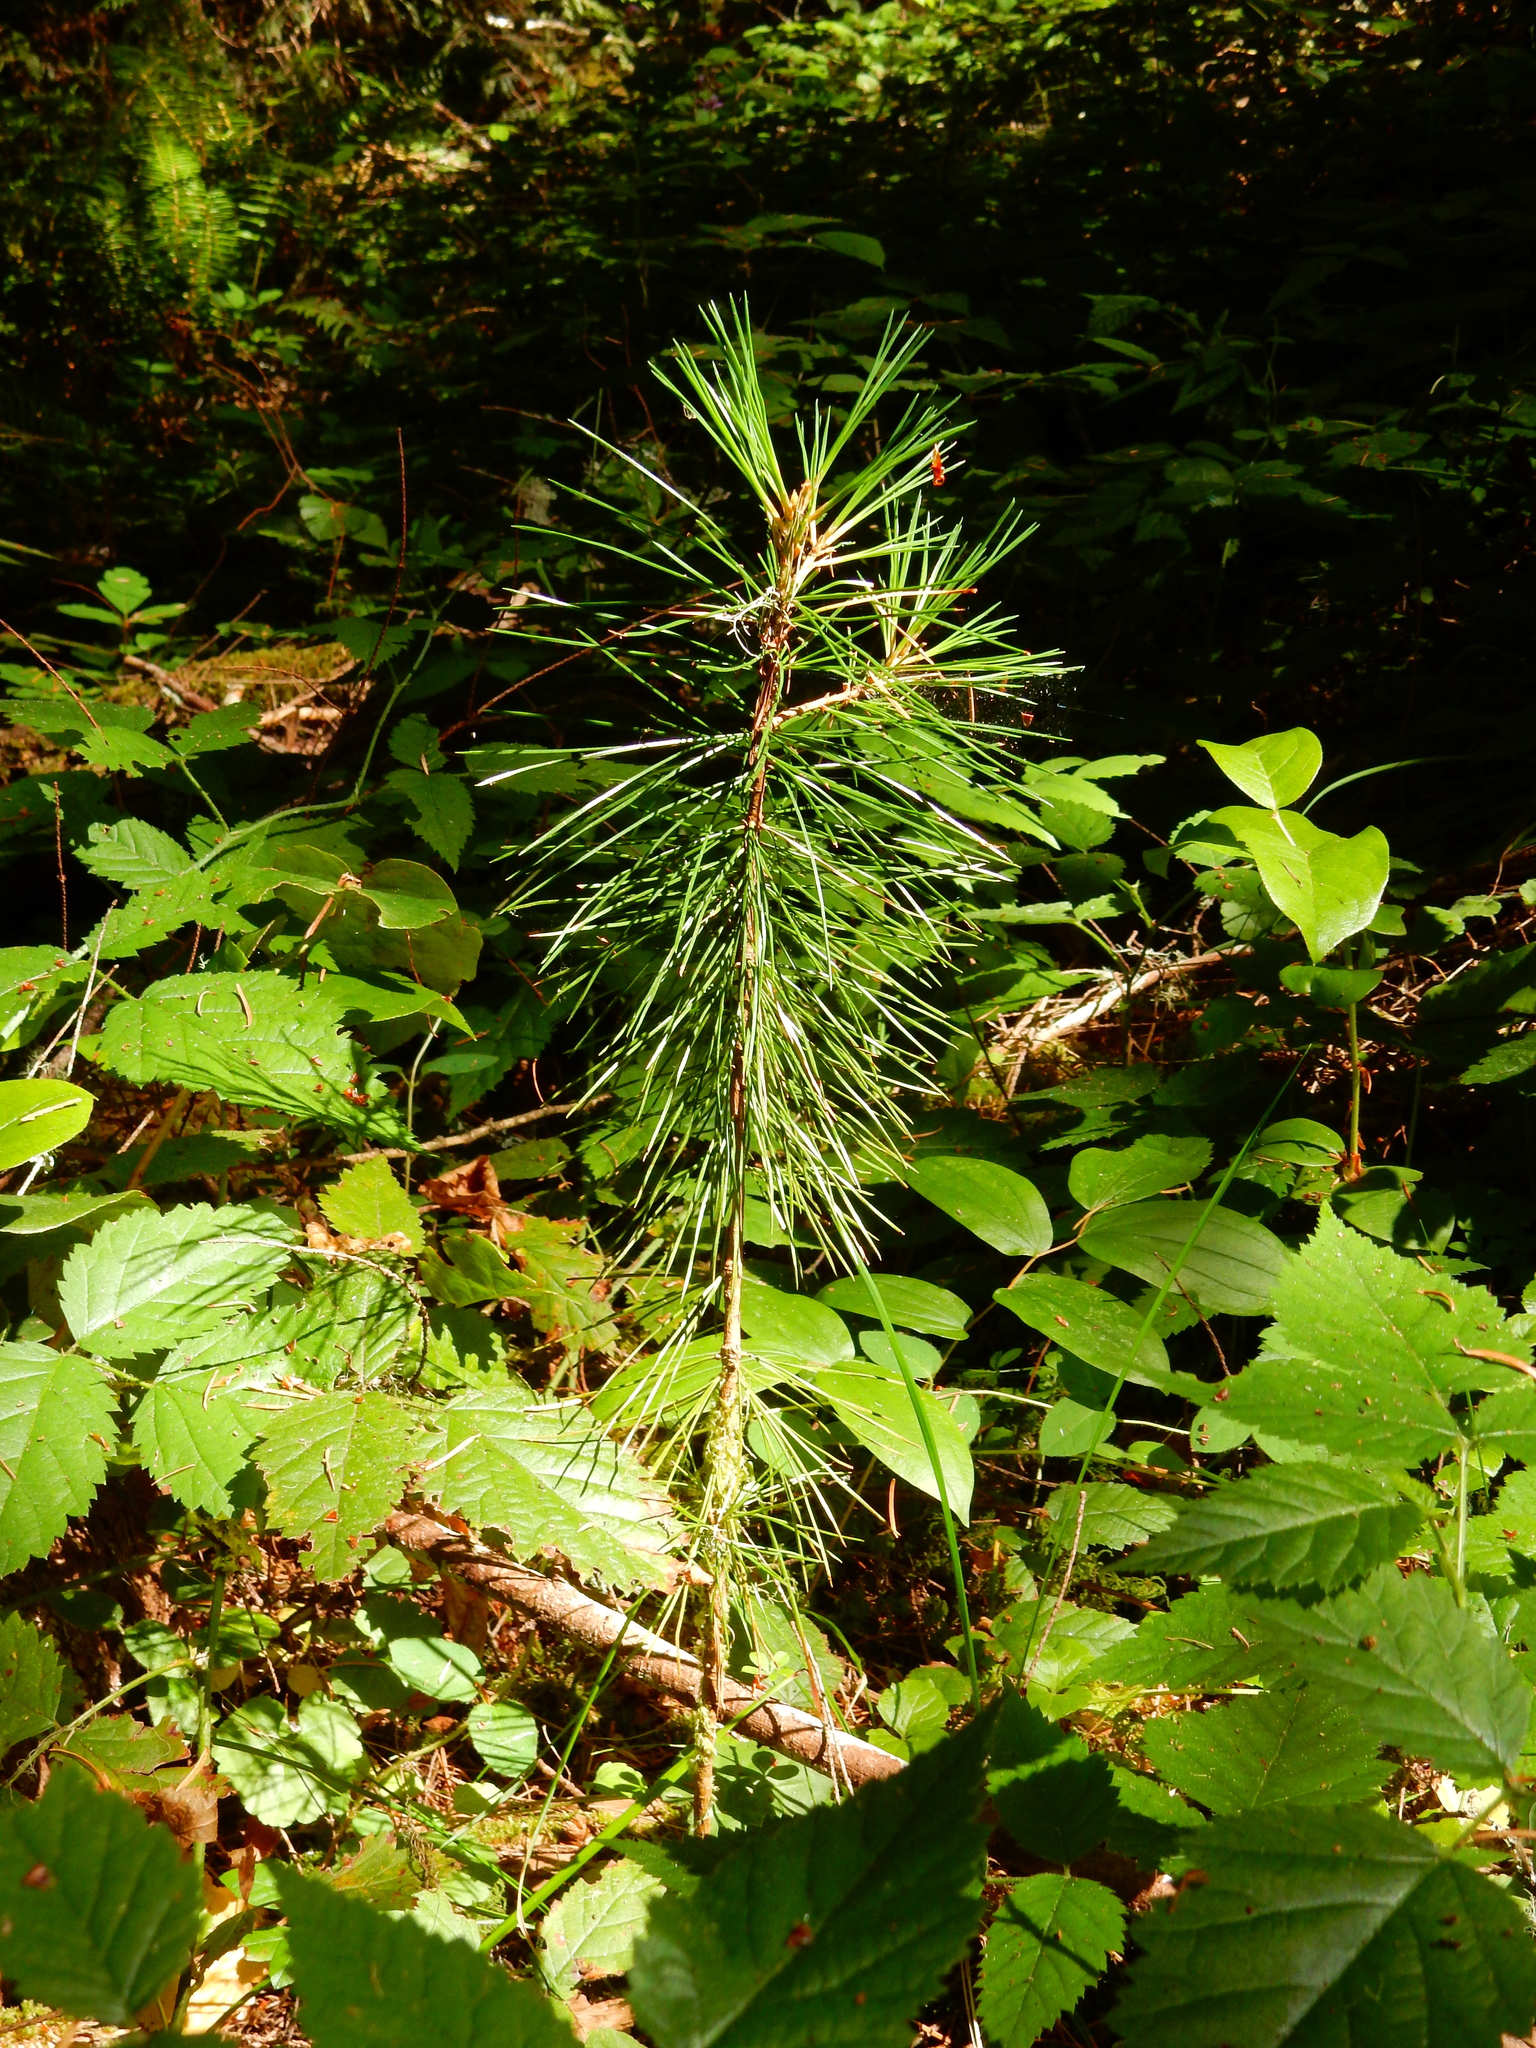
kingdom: Plantae
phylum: Tracheophyta
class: Pinopsida
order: Pinales
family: Pinaceae
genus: Pinus
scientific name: Pinus lambertiana
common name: Sugar pine
